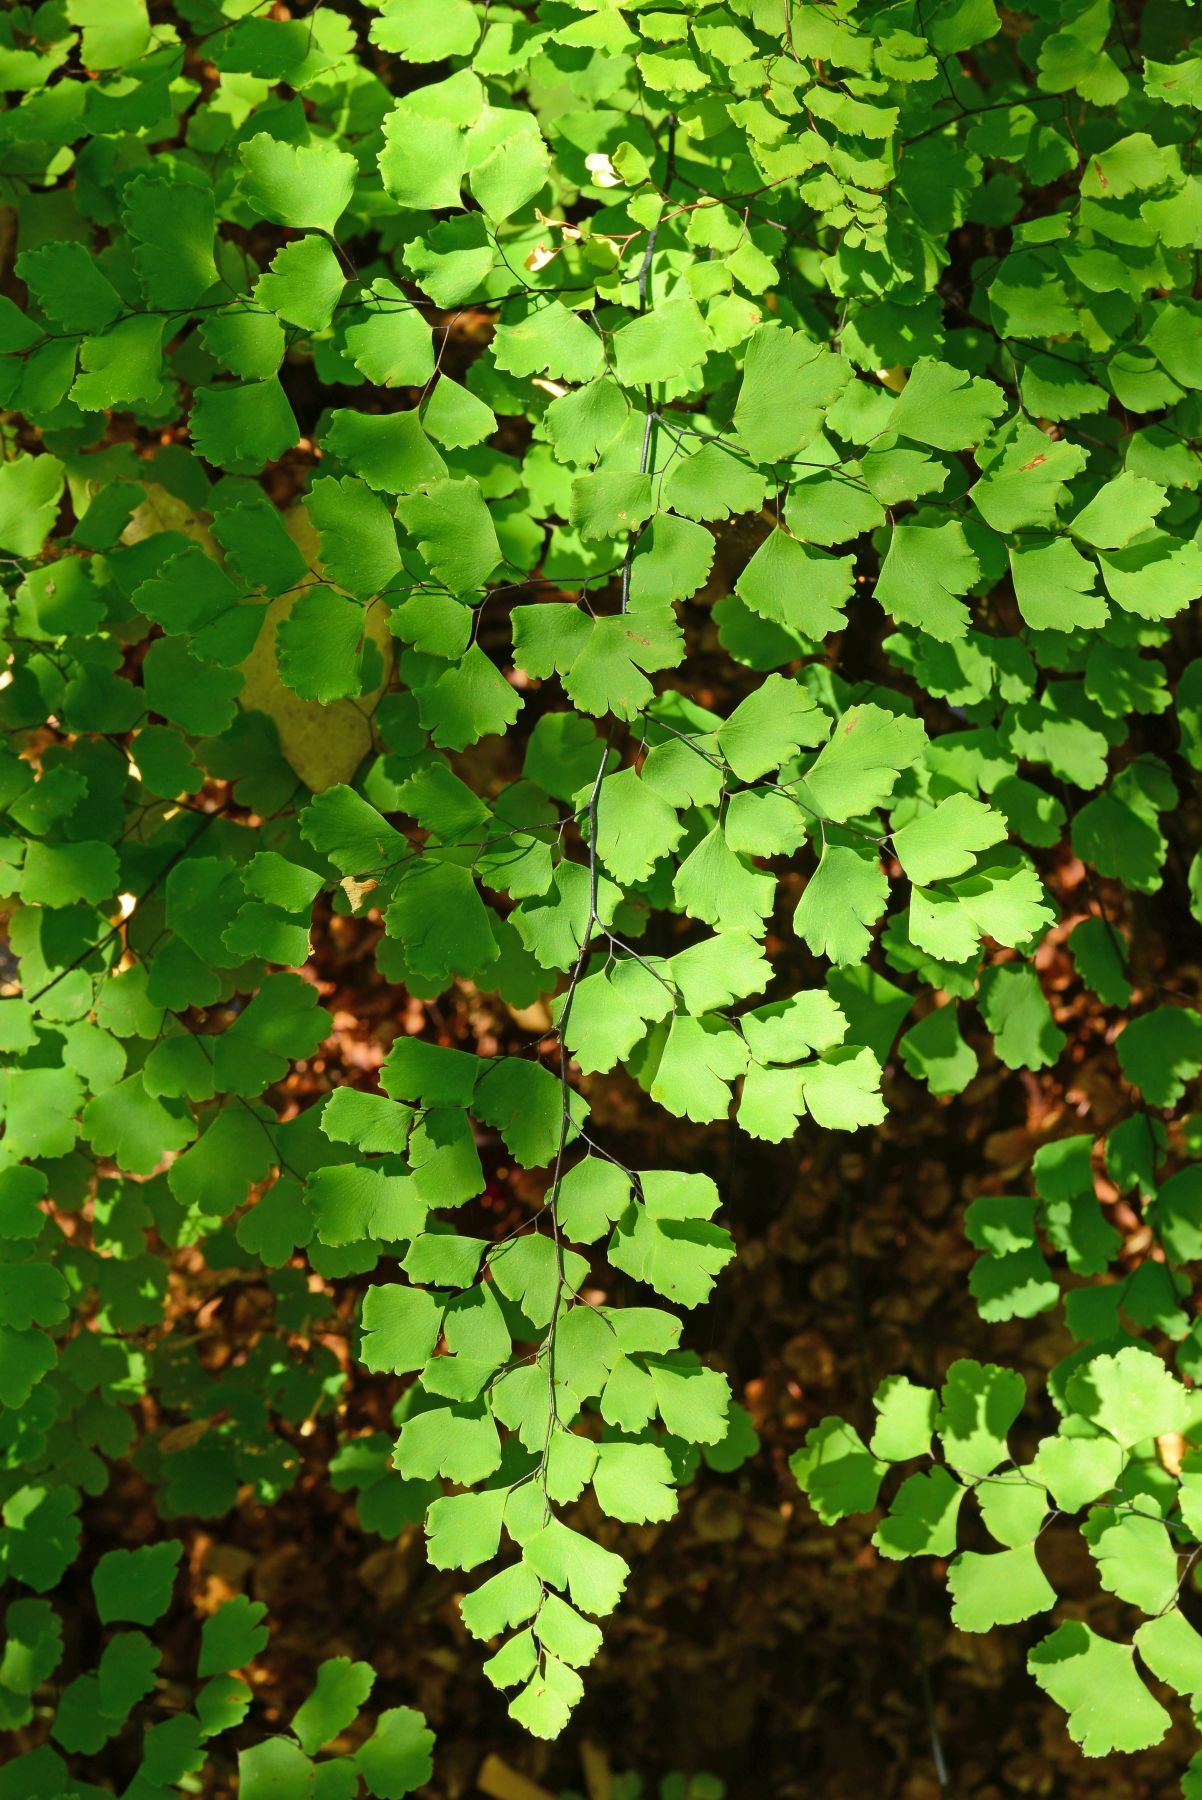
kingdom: Plantae
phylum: Tracheophyta
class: Polypodiopsida
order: Polypodiales
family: Pteridaceae
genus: Adiantum
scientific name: Adiantum shastense
